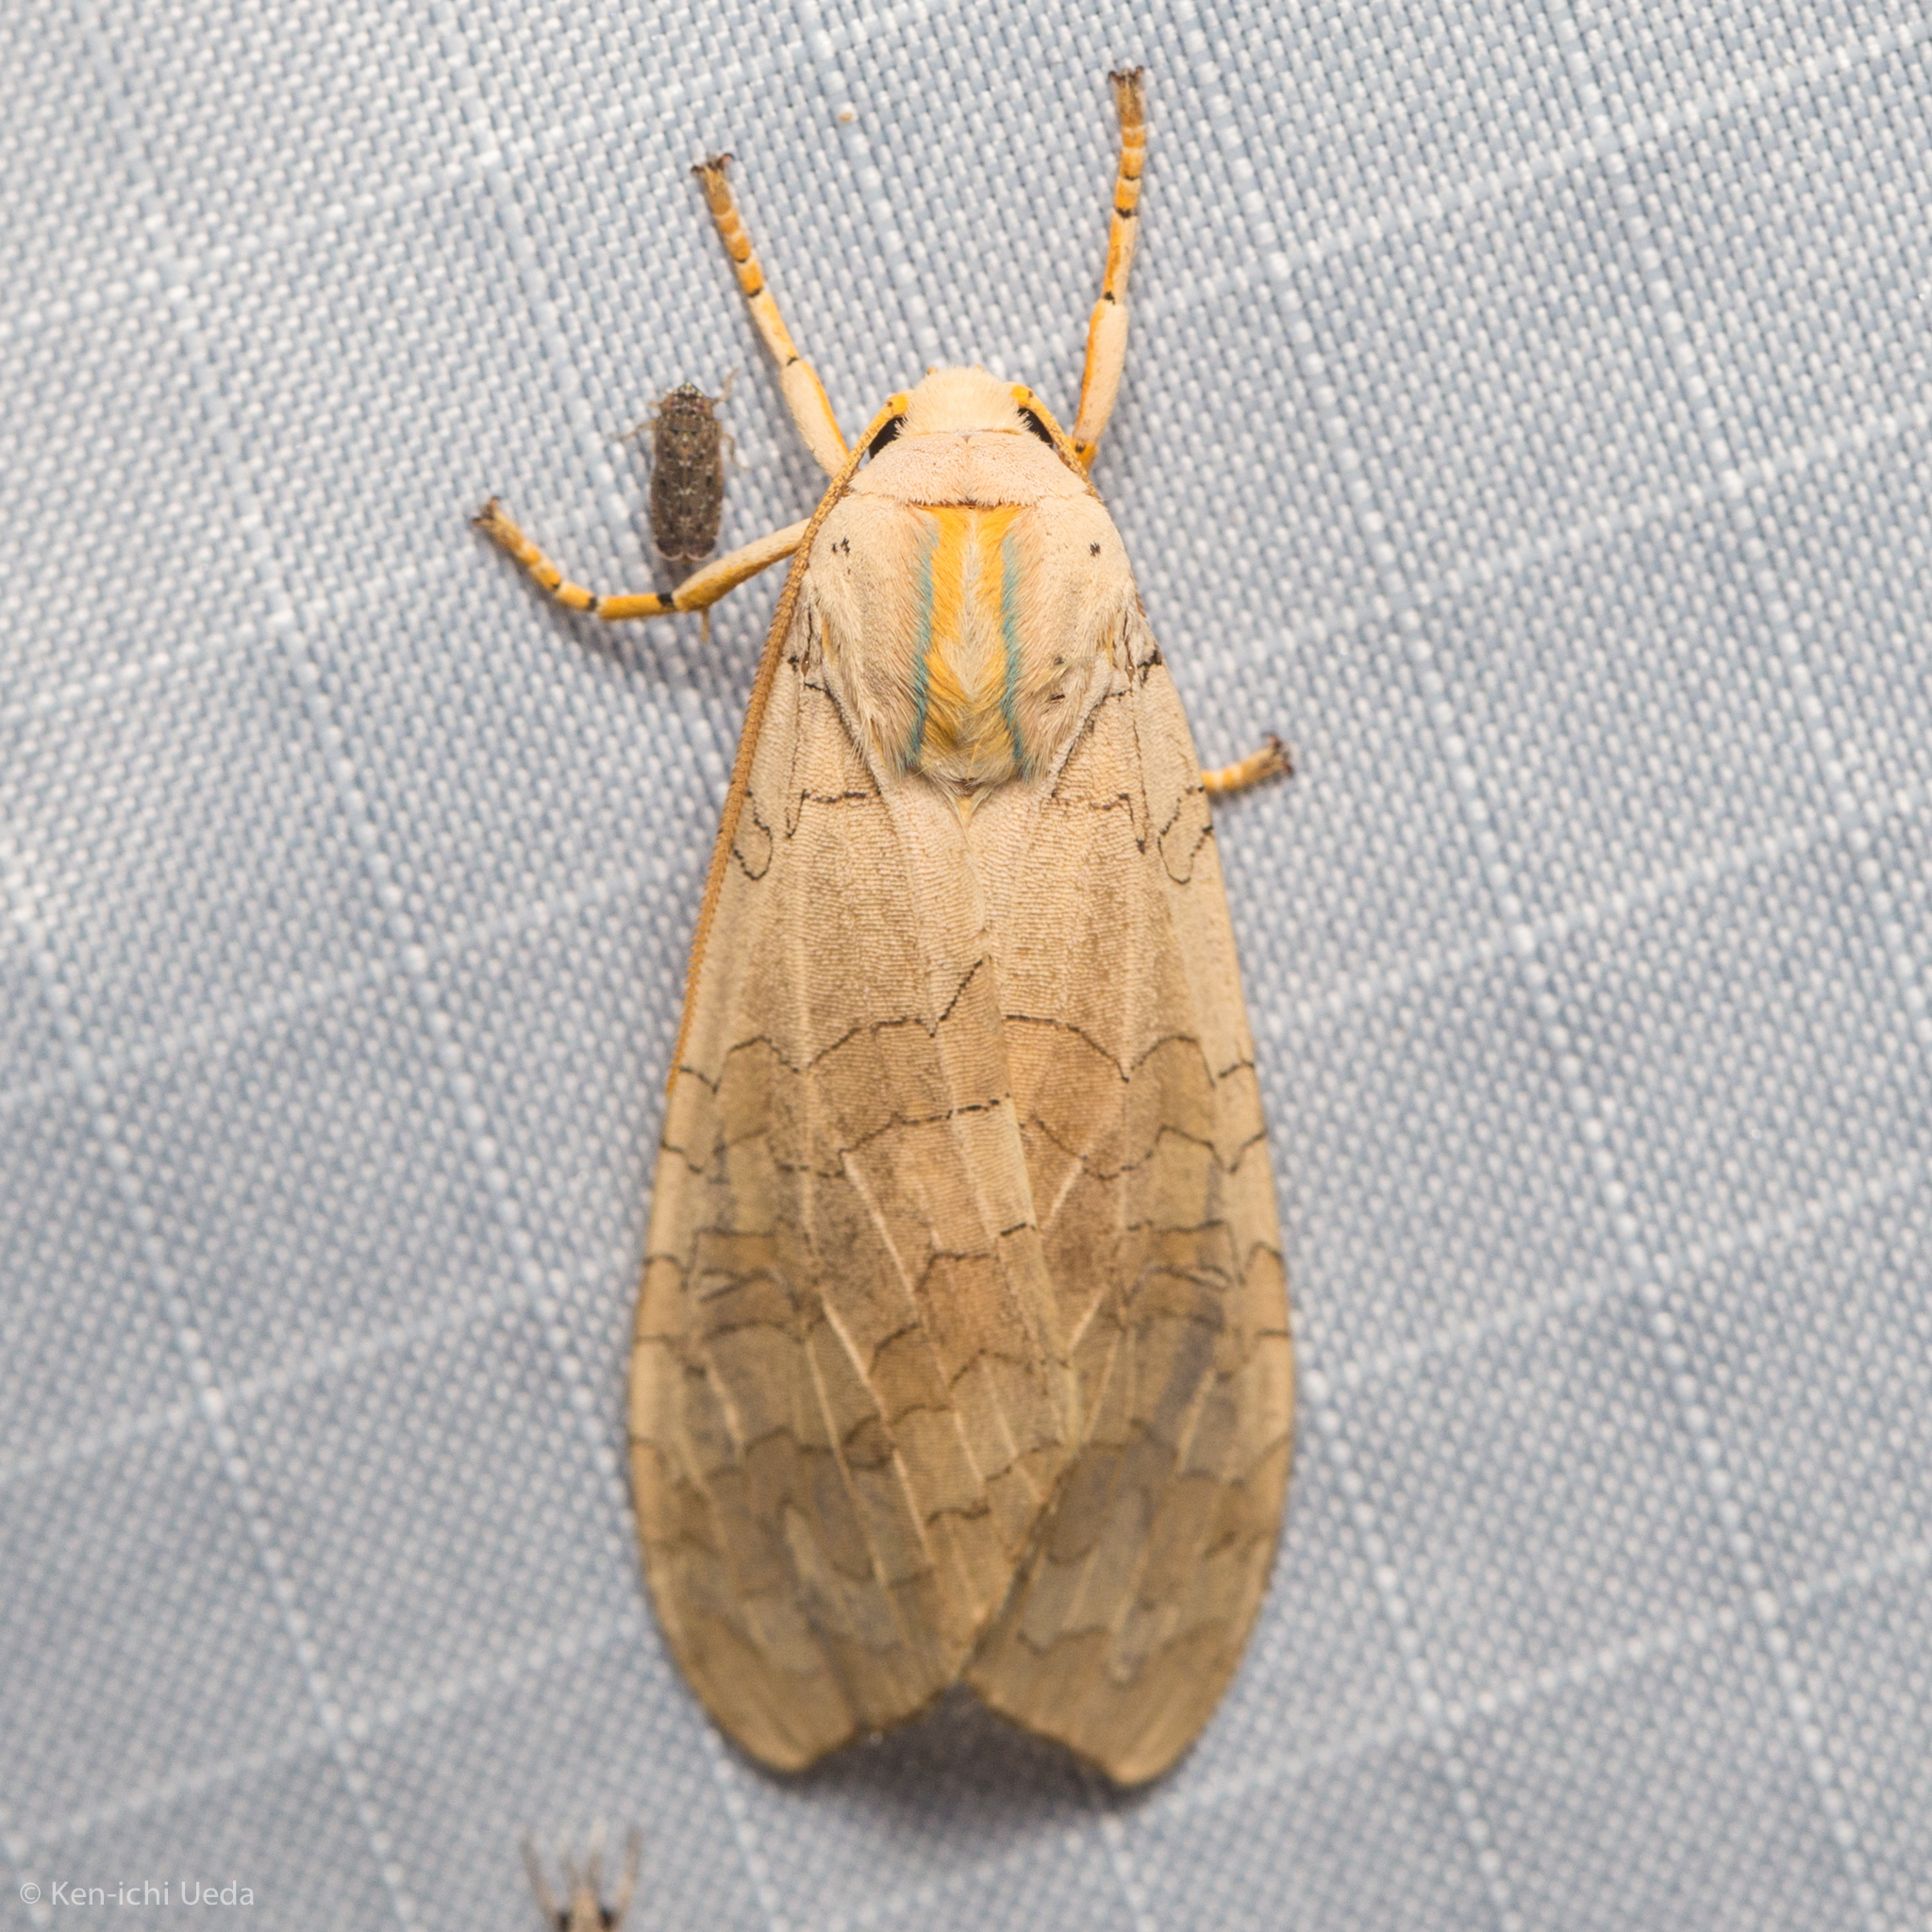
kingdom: Animalia
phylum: Arthropoda
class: Insecta
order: Lepidoptera
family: Erebidae
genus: Halysidota
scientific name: Halysidota
